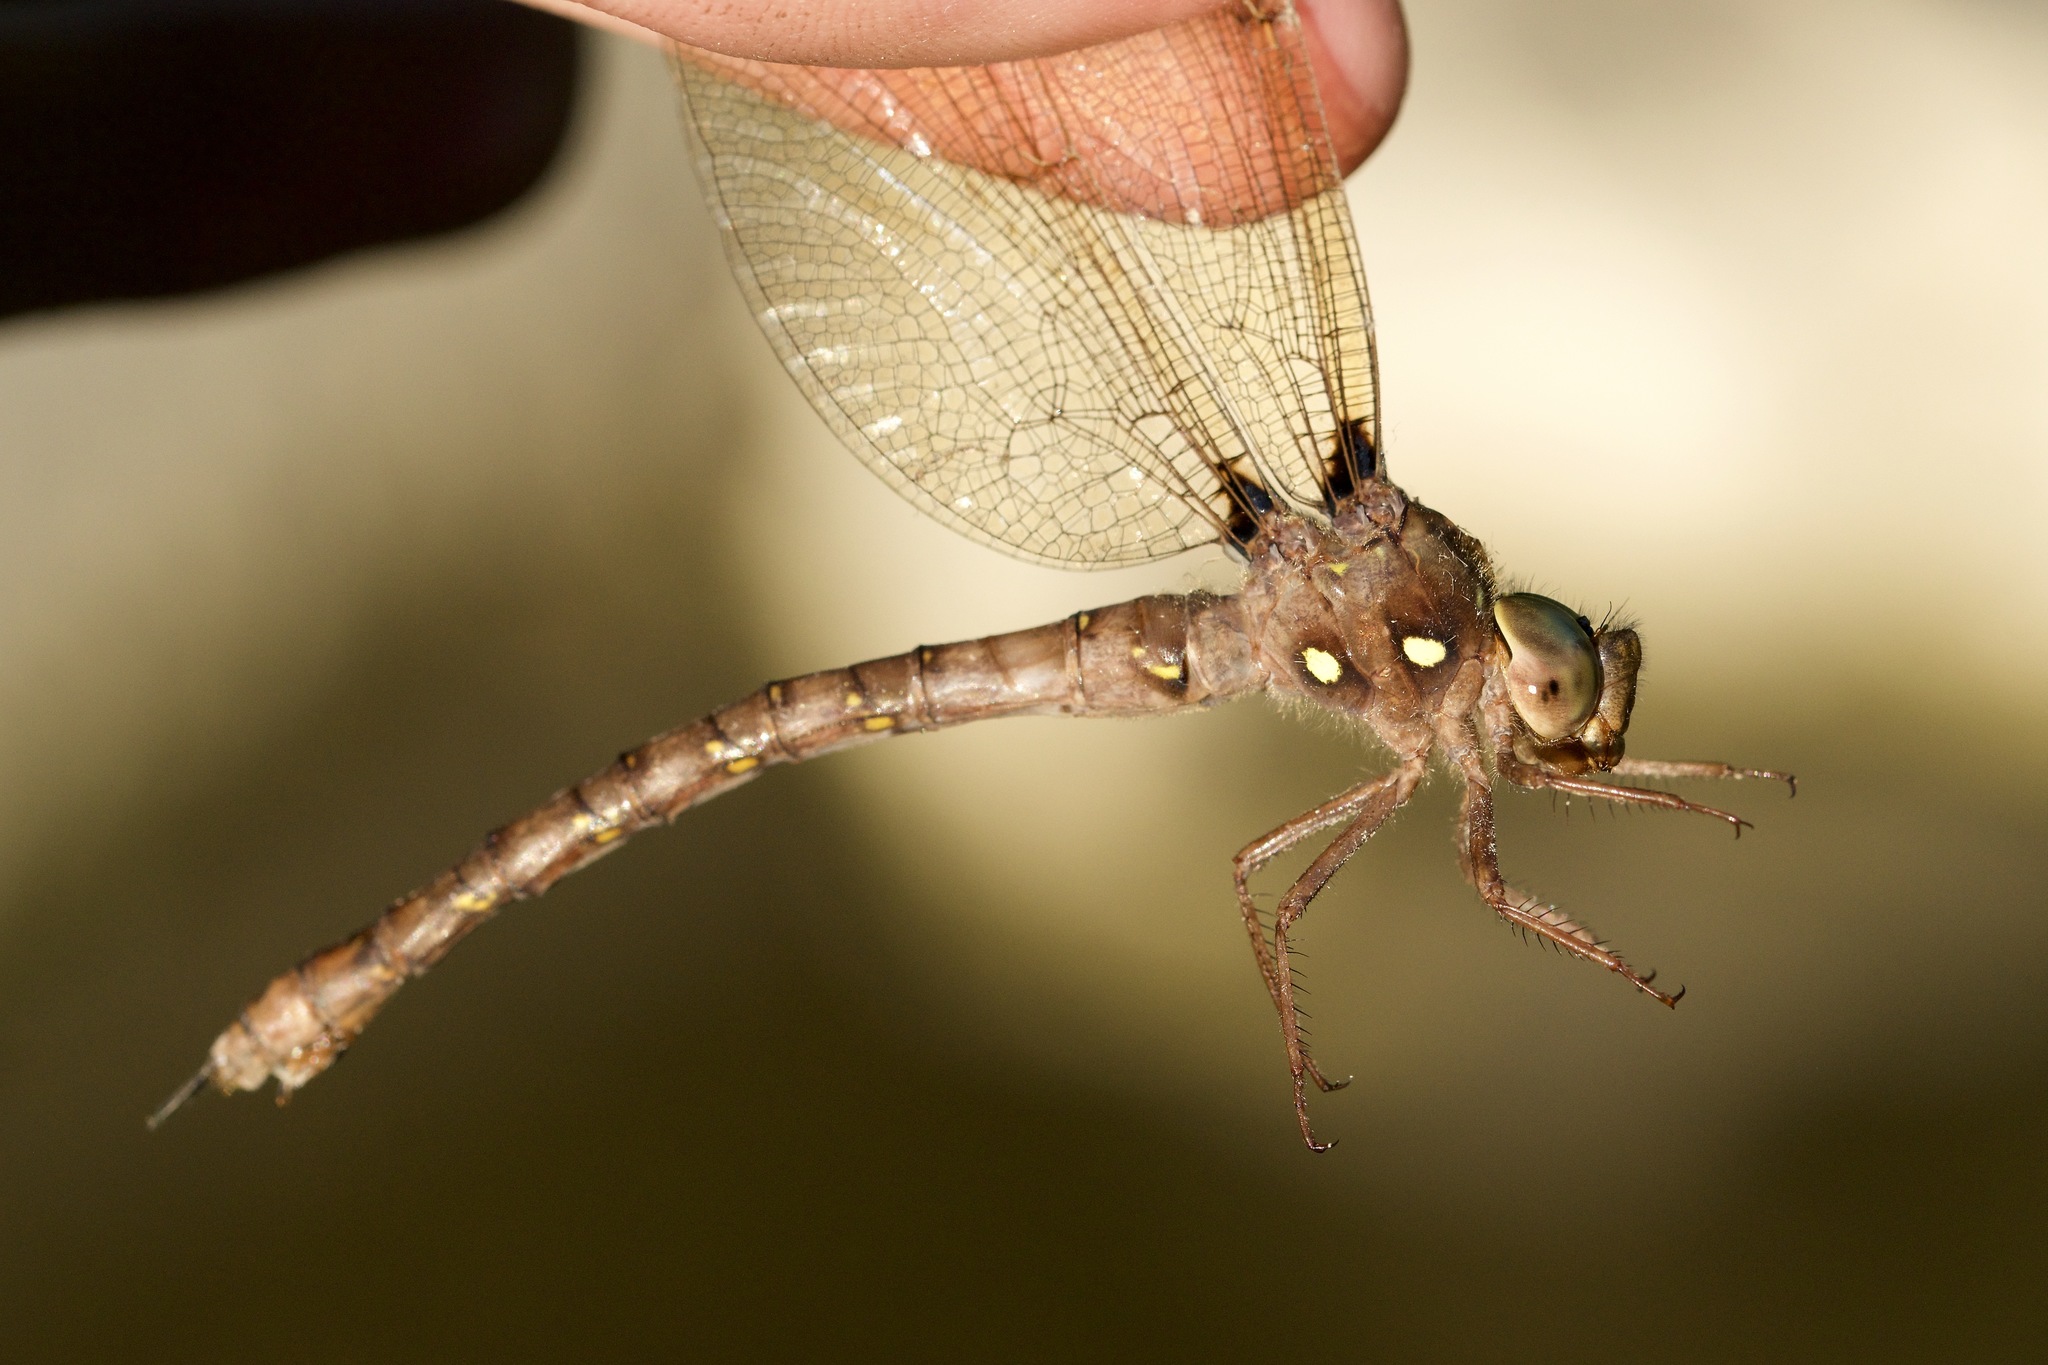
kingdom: Animalia
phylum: Arthropoda
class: Insecta
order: Odonata
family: Aeshnidae
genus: Boyeria
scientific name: Boyeria vinosa
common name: Fawn darner
